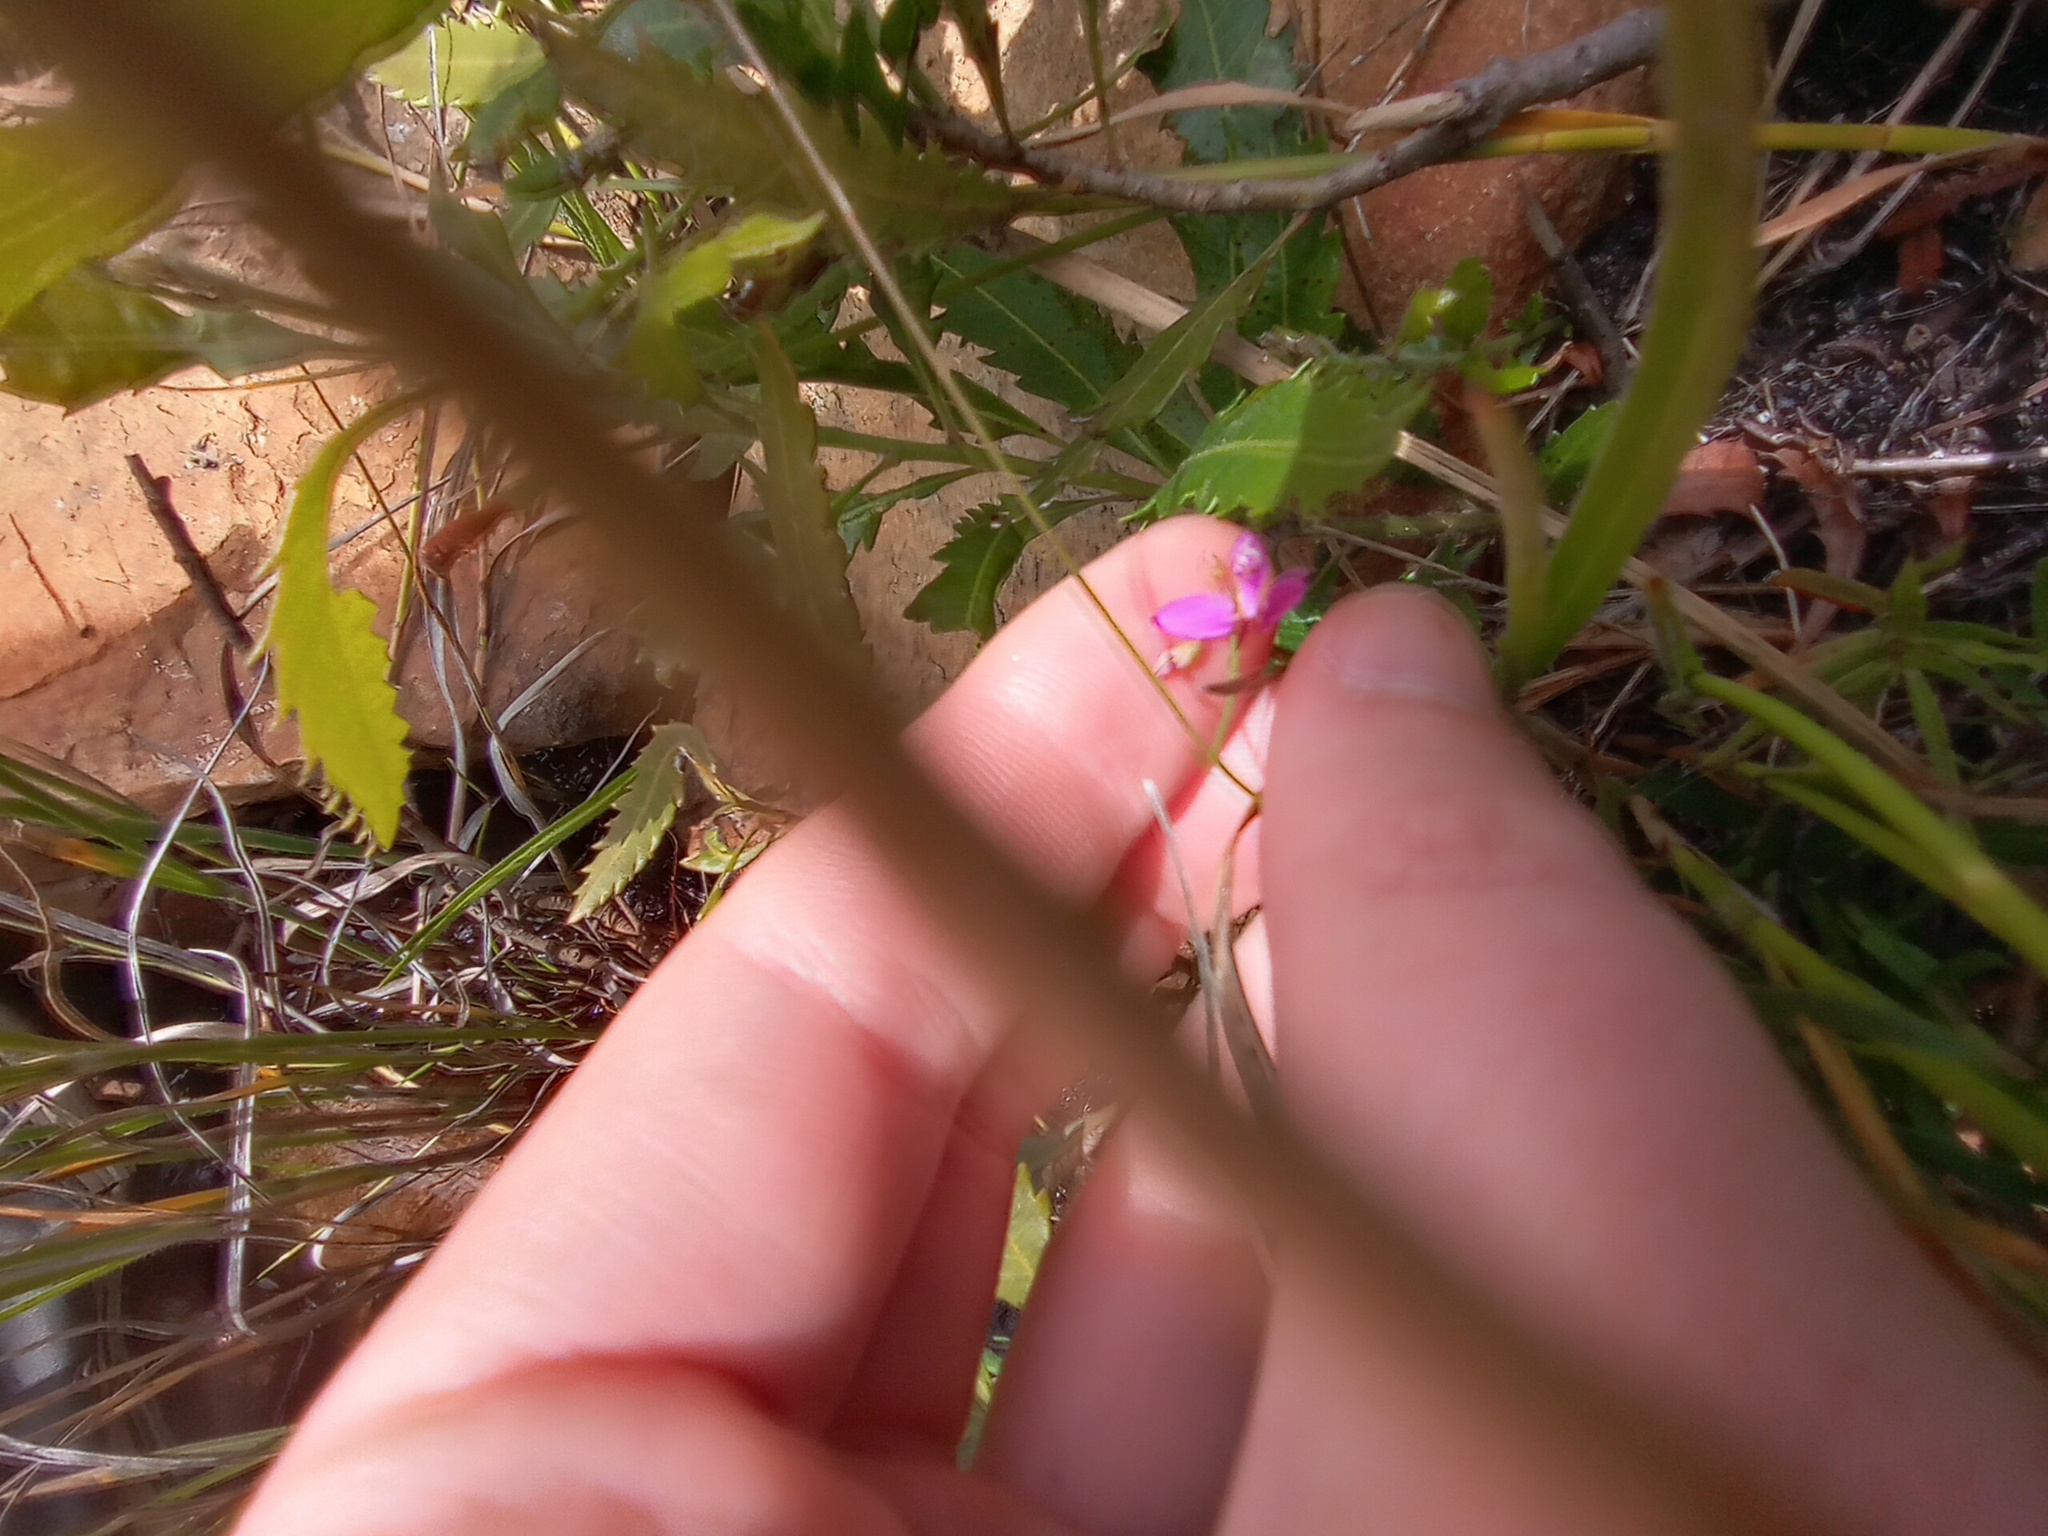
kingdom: Plantae
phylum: Tracheophyta
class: Magnoliopsida
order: Fabales
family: Polygalaceae
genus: Polygala
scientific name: Polygala nematocaulis
